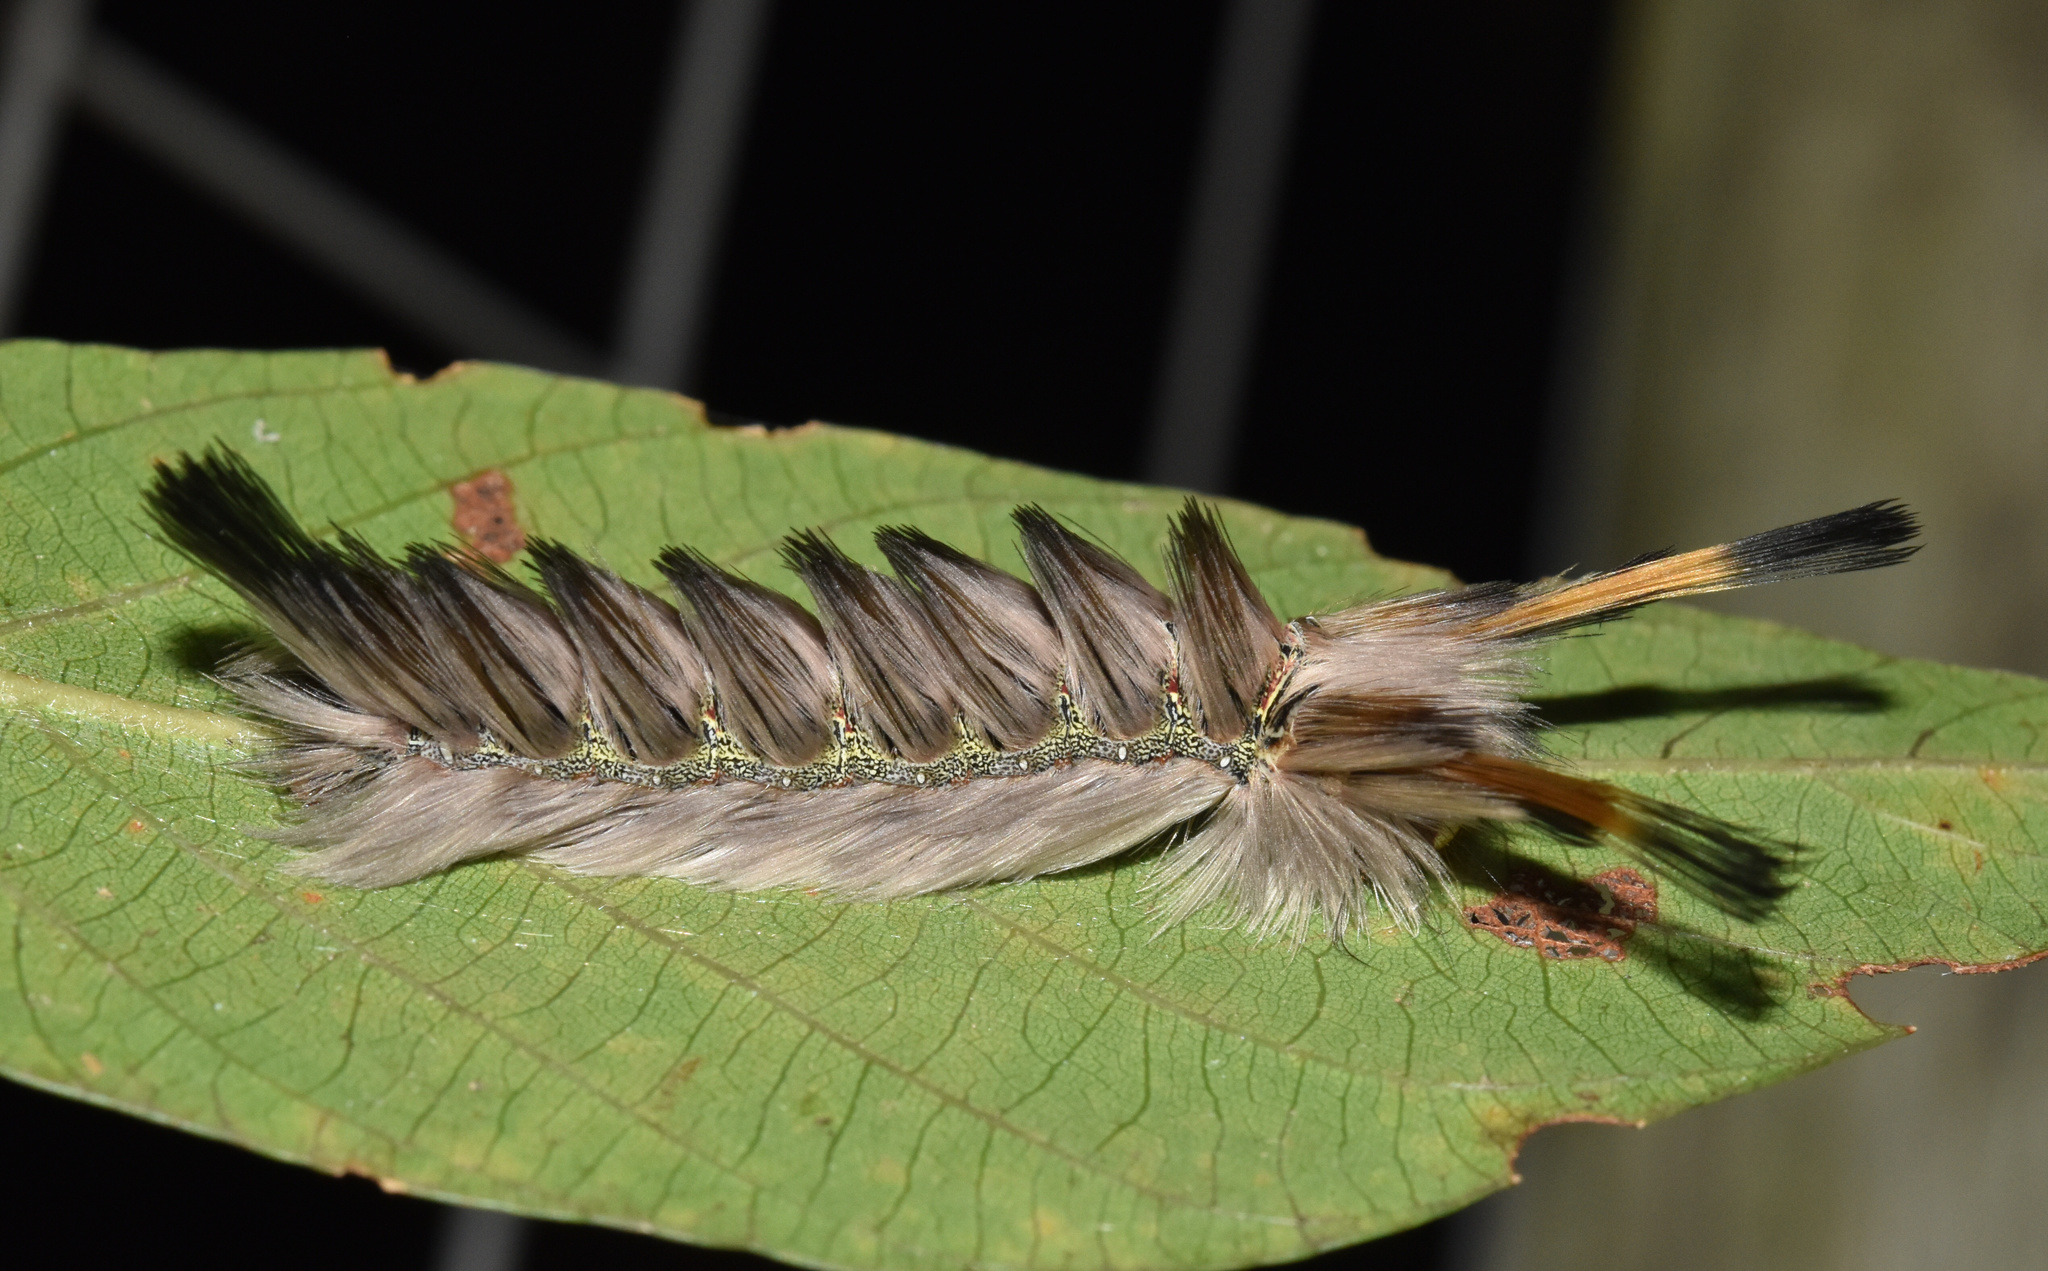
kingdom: Animalia
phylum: Arthropoda
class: Insecta
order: Lepidoptera
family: Eupterotidae
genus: Lichenopteryx
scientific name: Lichenopteryx despecta
